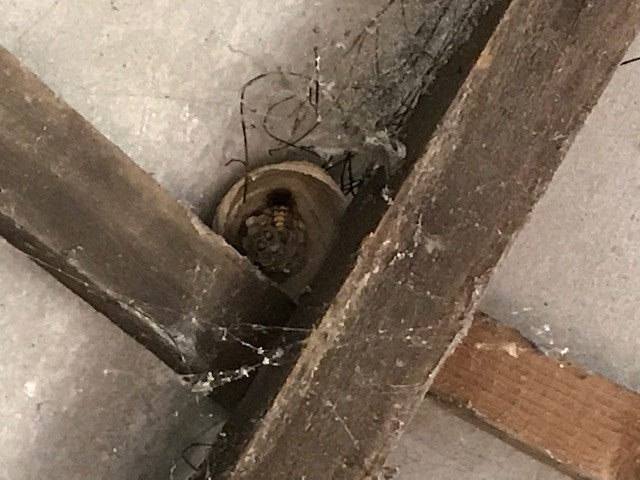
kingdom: Animalia
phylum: Arthropoda
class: Insecta
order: Hymenoptera
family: Vespidae
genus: Vespa
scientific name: Vespa crabro
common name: Hornet
